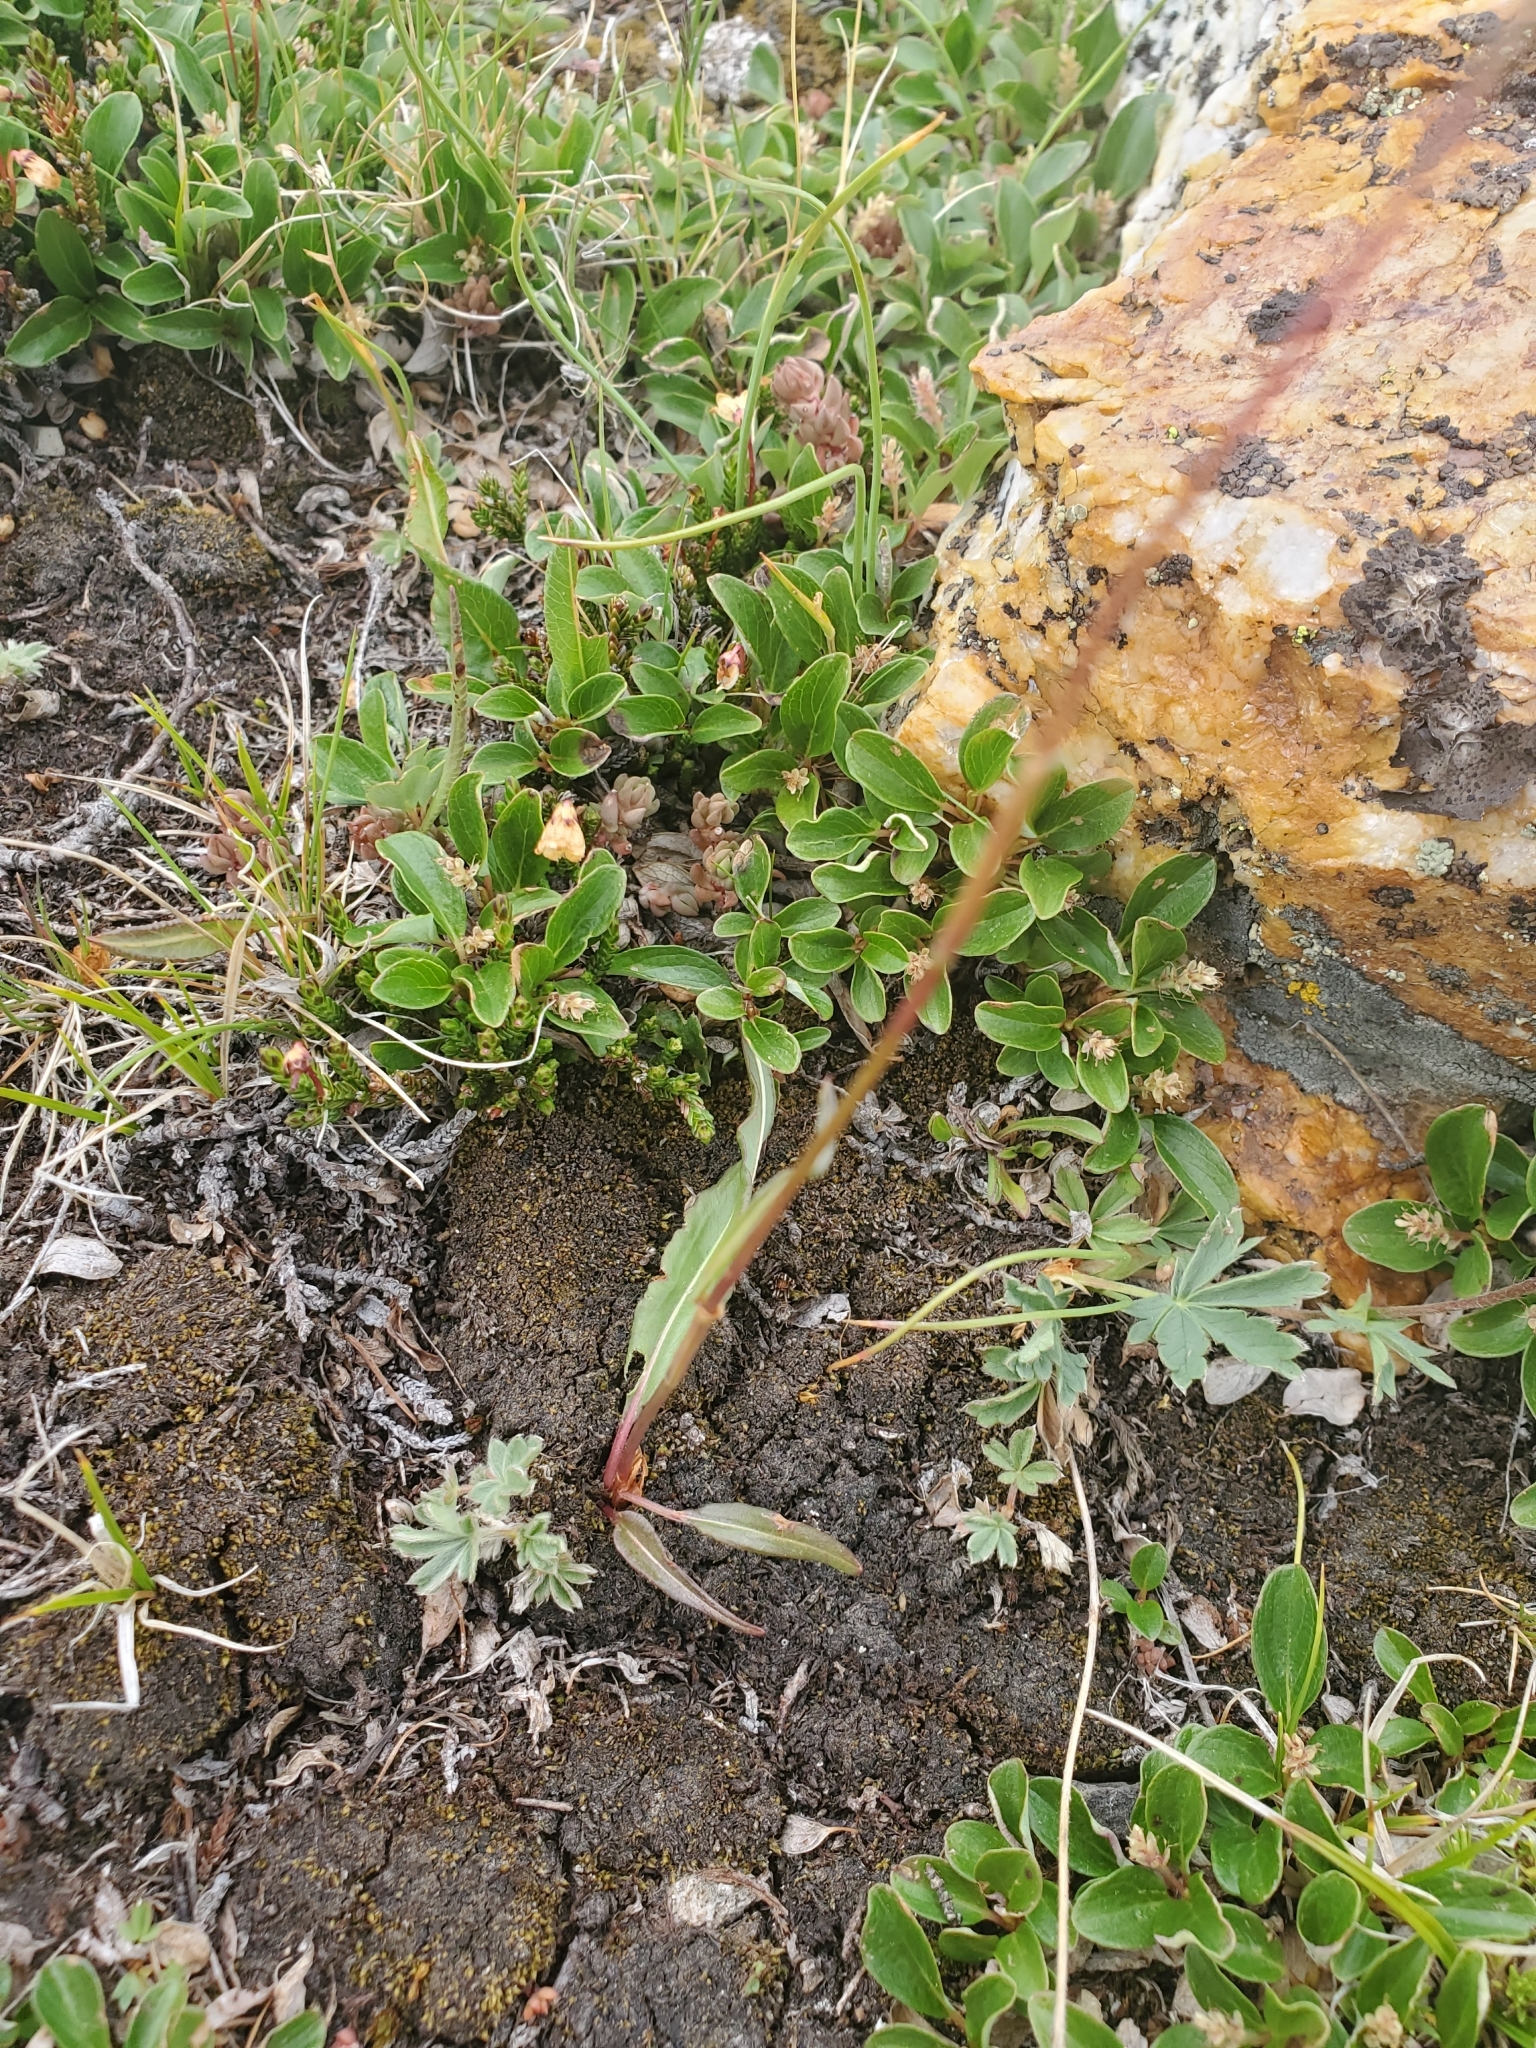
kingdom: Plantae
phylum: Tracheophyta
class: Magnoliopsida
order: Caryophyllales
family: Polygonaceae
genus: Bistorta
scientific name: Bistorta bistortoides
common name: American bistort
